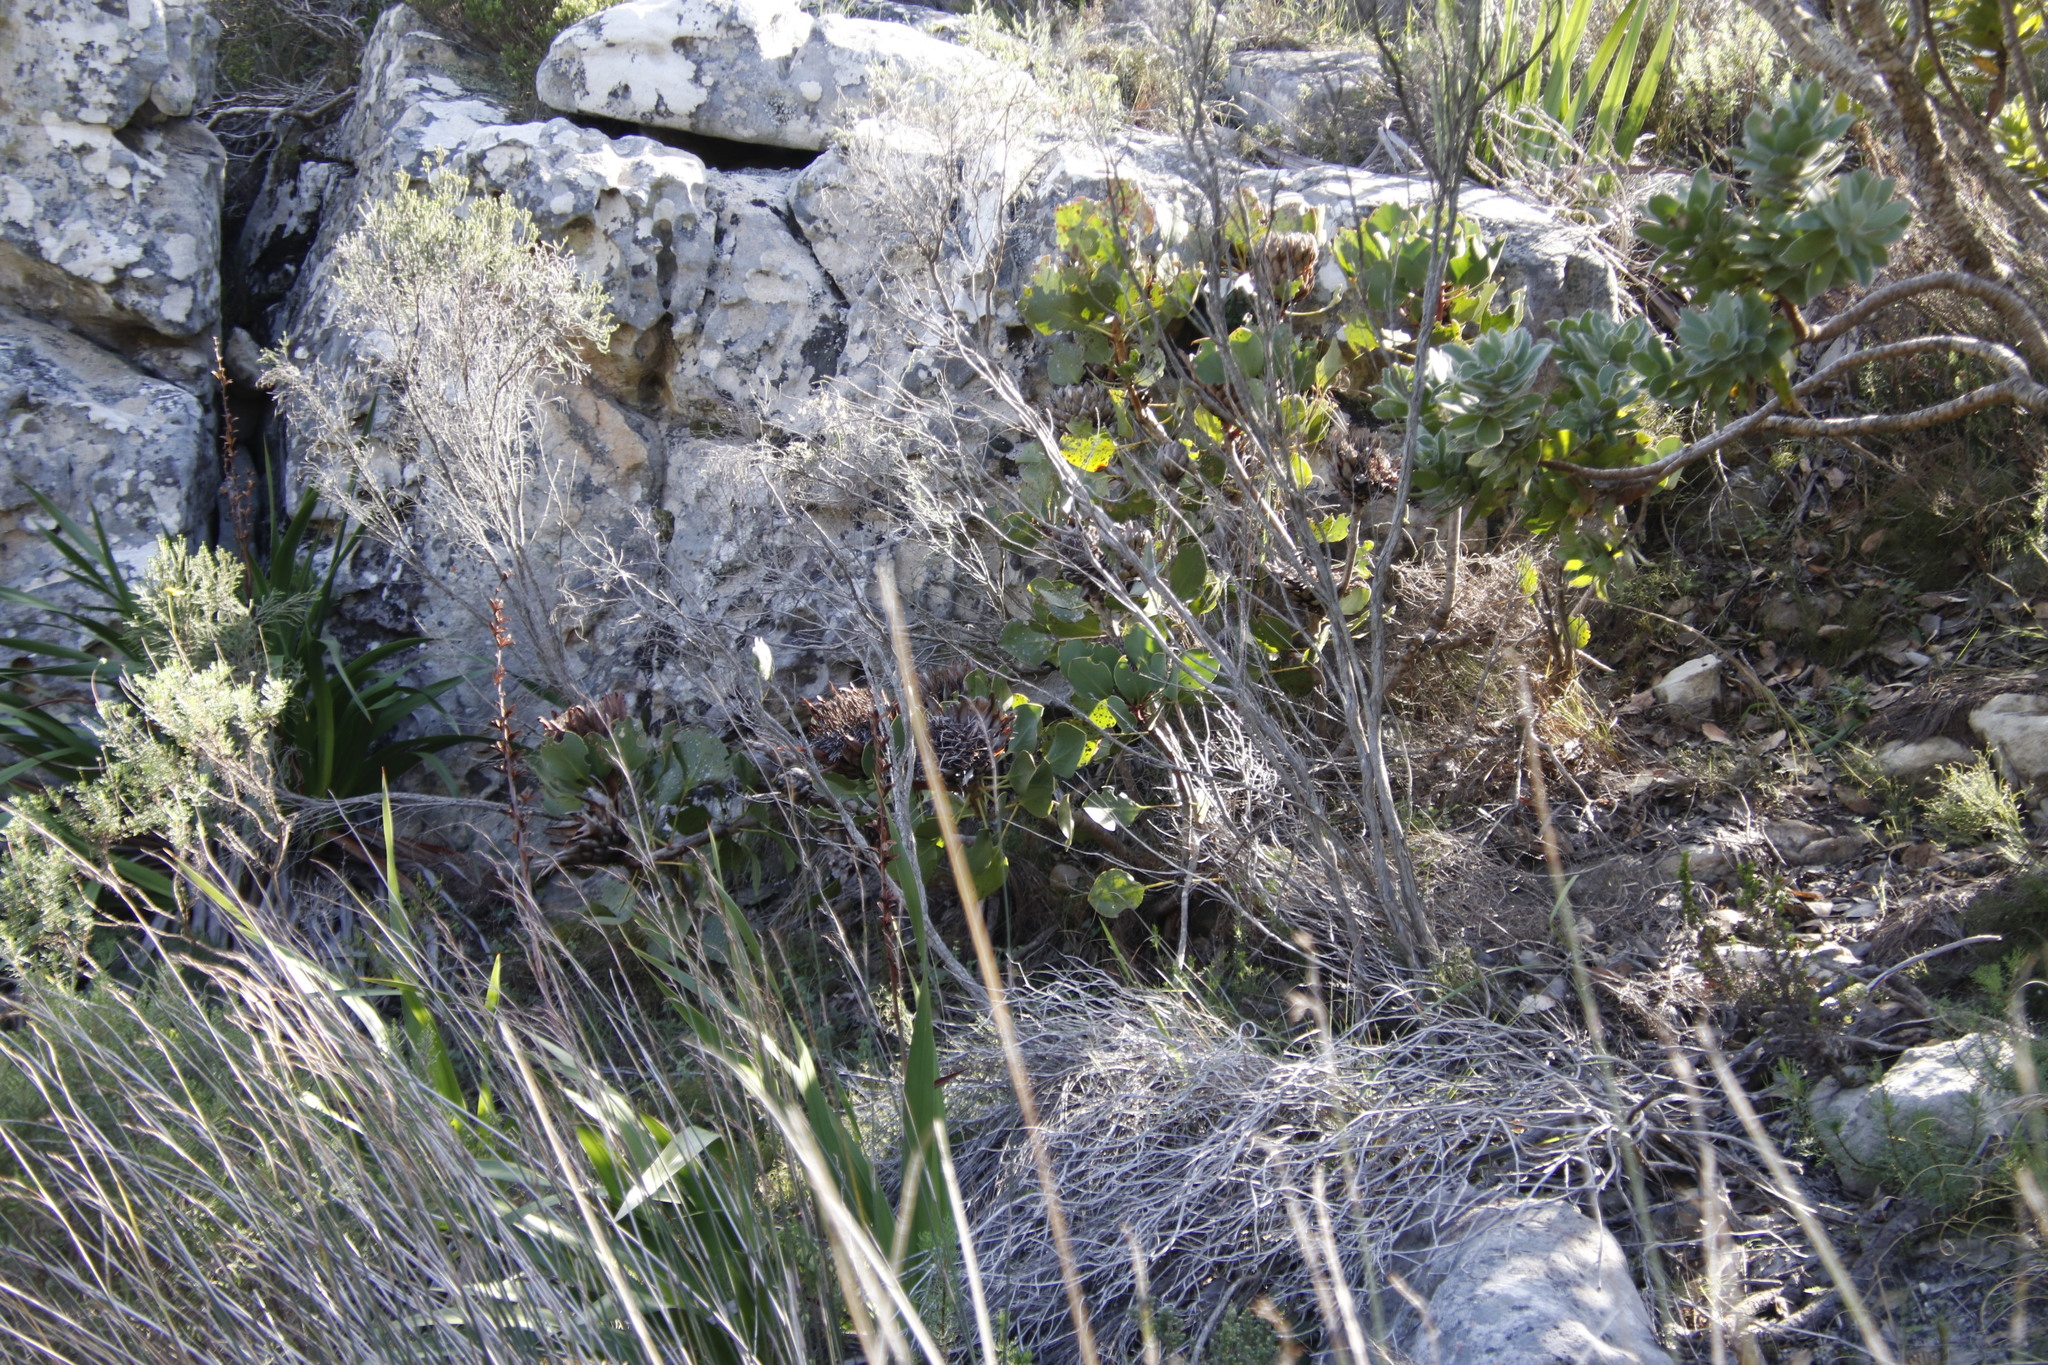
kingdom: Plantae
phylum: Tracheophyta
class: Magnoliopsida
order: Proteales
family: Proteaceae
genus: Protea
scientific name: Protea cynaroides
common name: King protea
